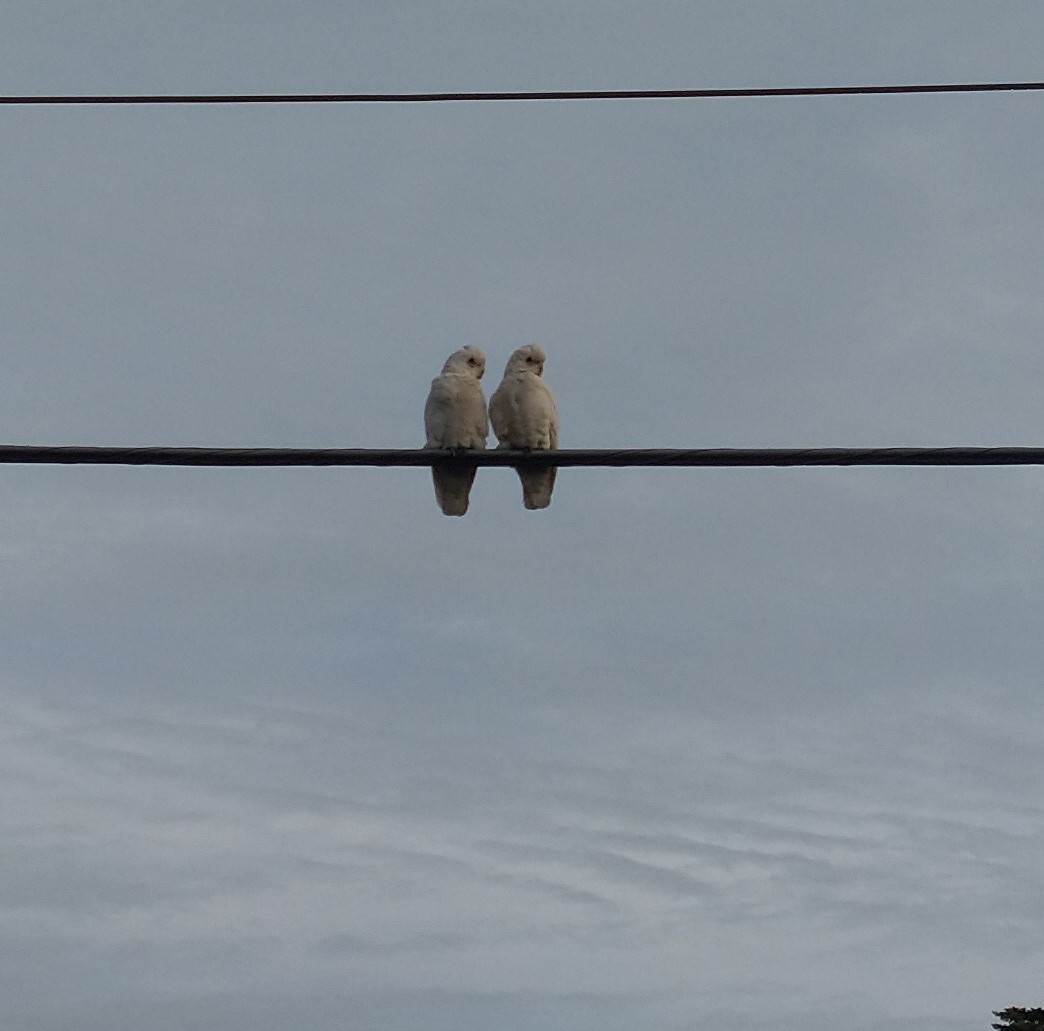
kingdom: Animalia
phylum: Chordata
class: Aves
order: Psittaciformes
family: Psittacidae
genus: Cacatua
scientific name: Cacatua sanguinea
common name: Little corella
